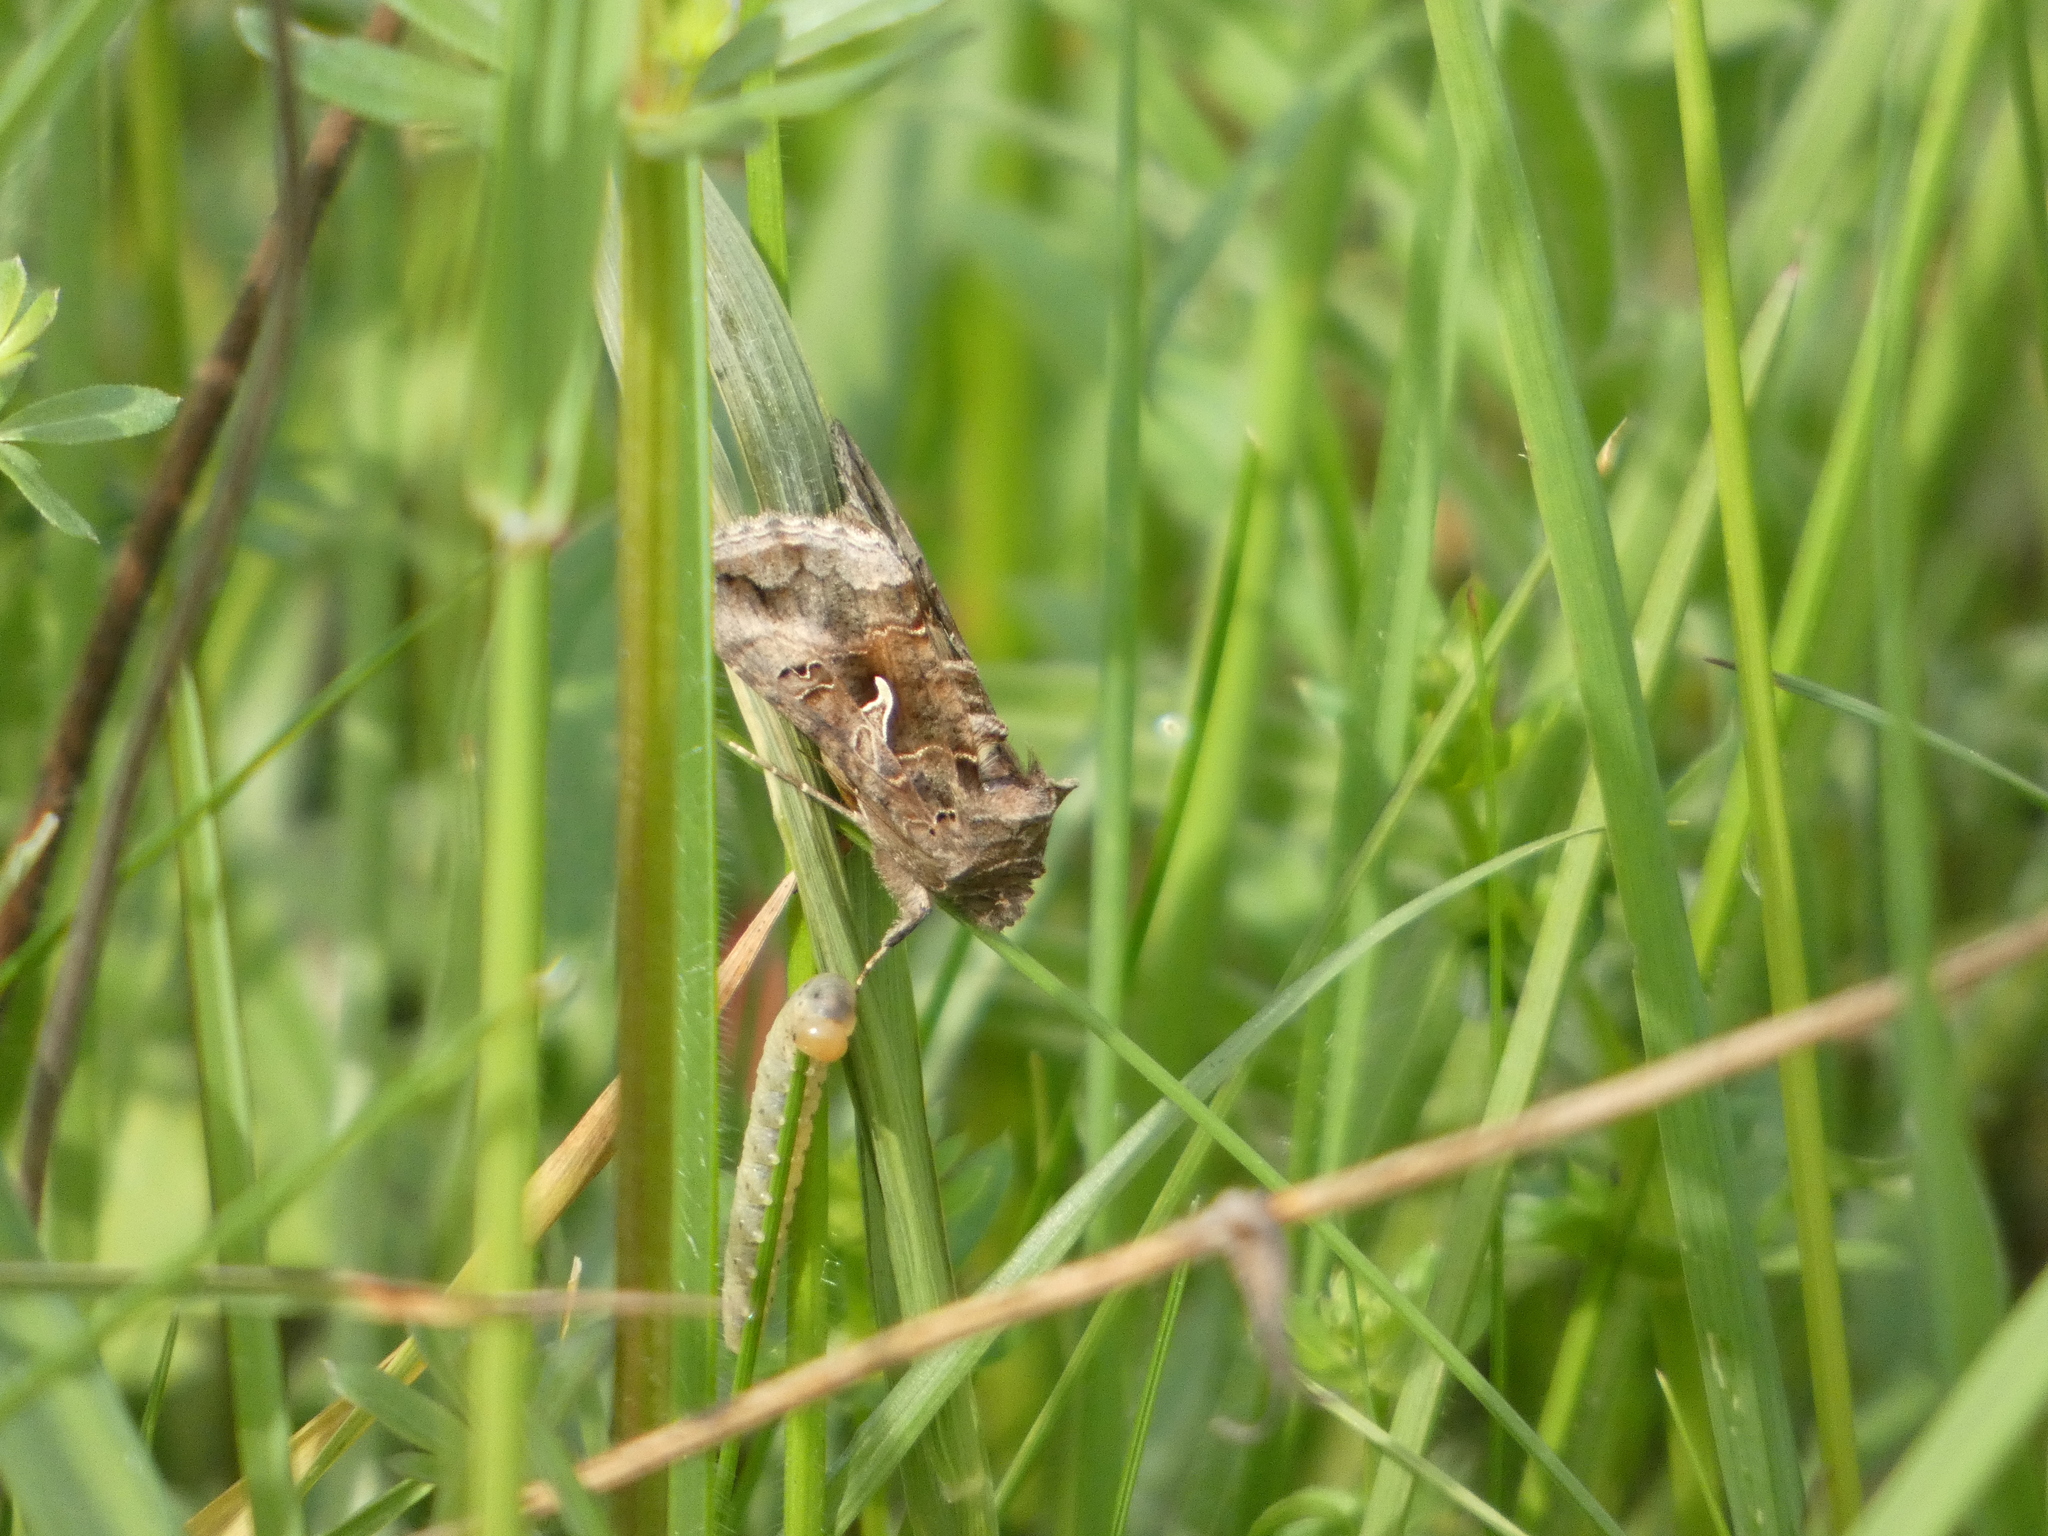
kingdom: Animalia
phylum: Arthropoda
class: Insecta
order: Lepidoptera
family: Noctuidae
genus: Autographa
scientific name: Autographa gamma
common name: Silver y
